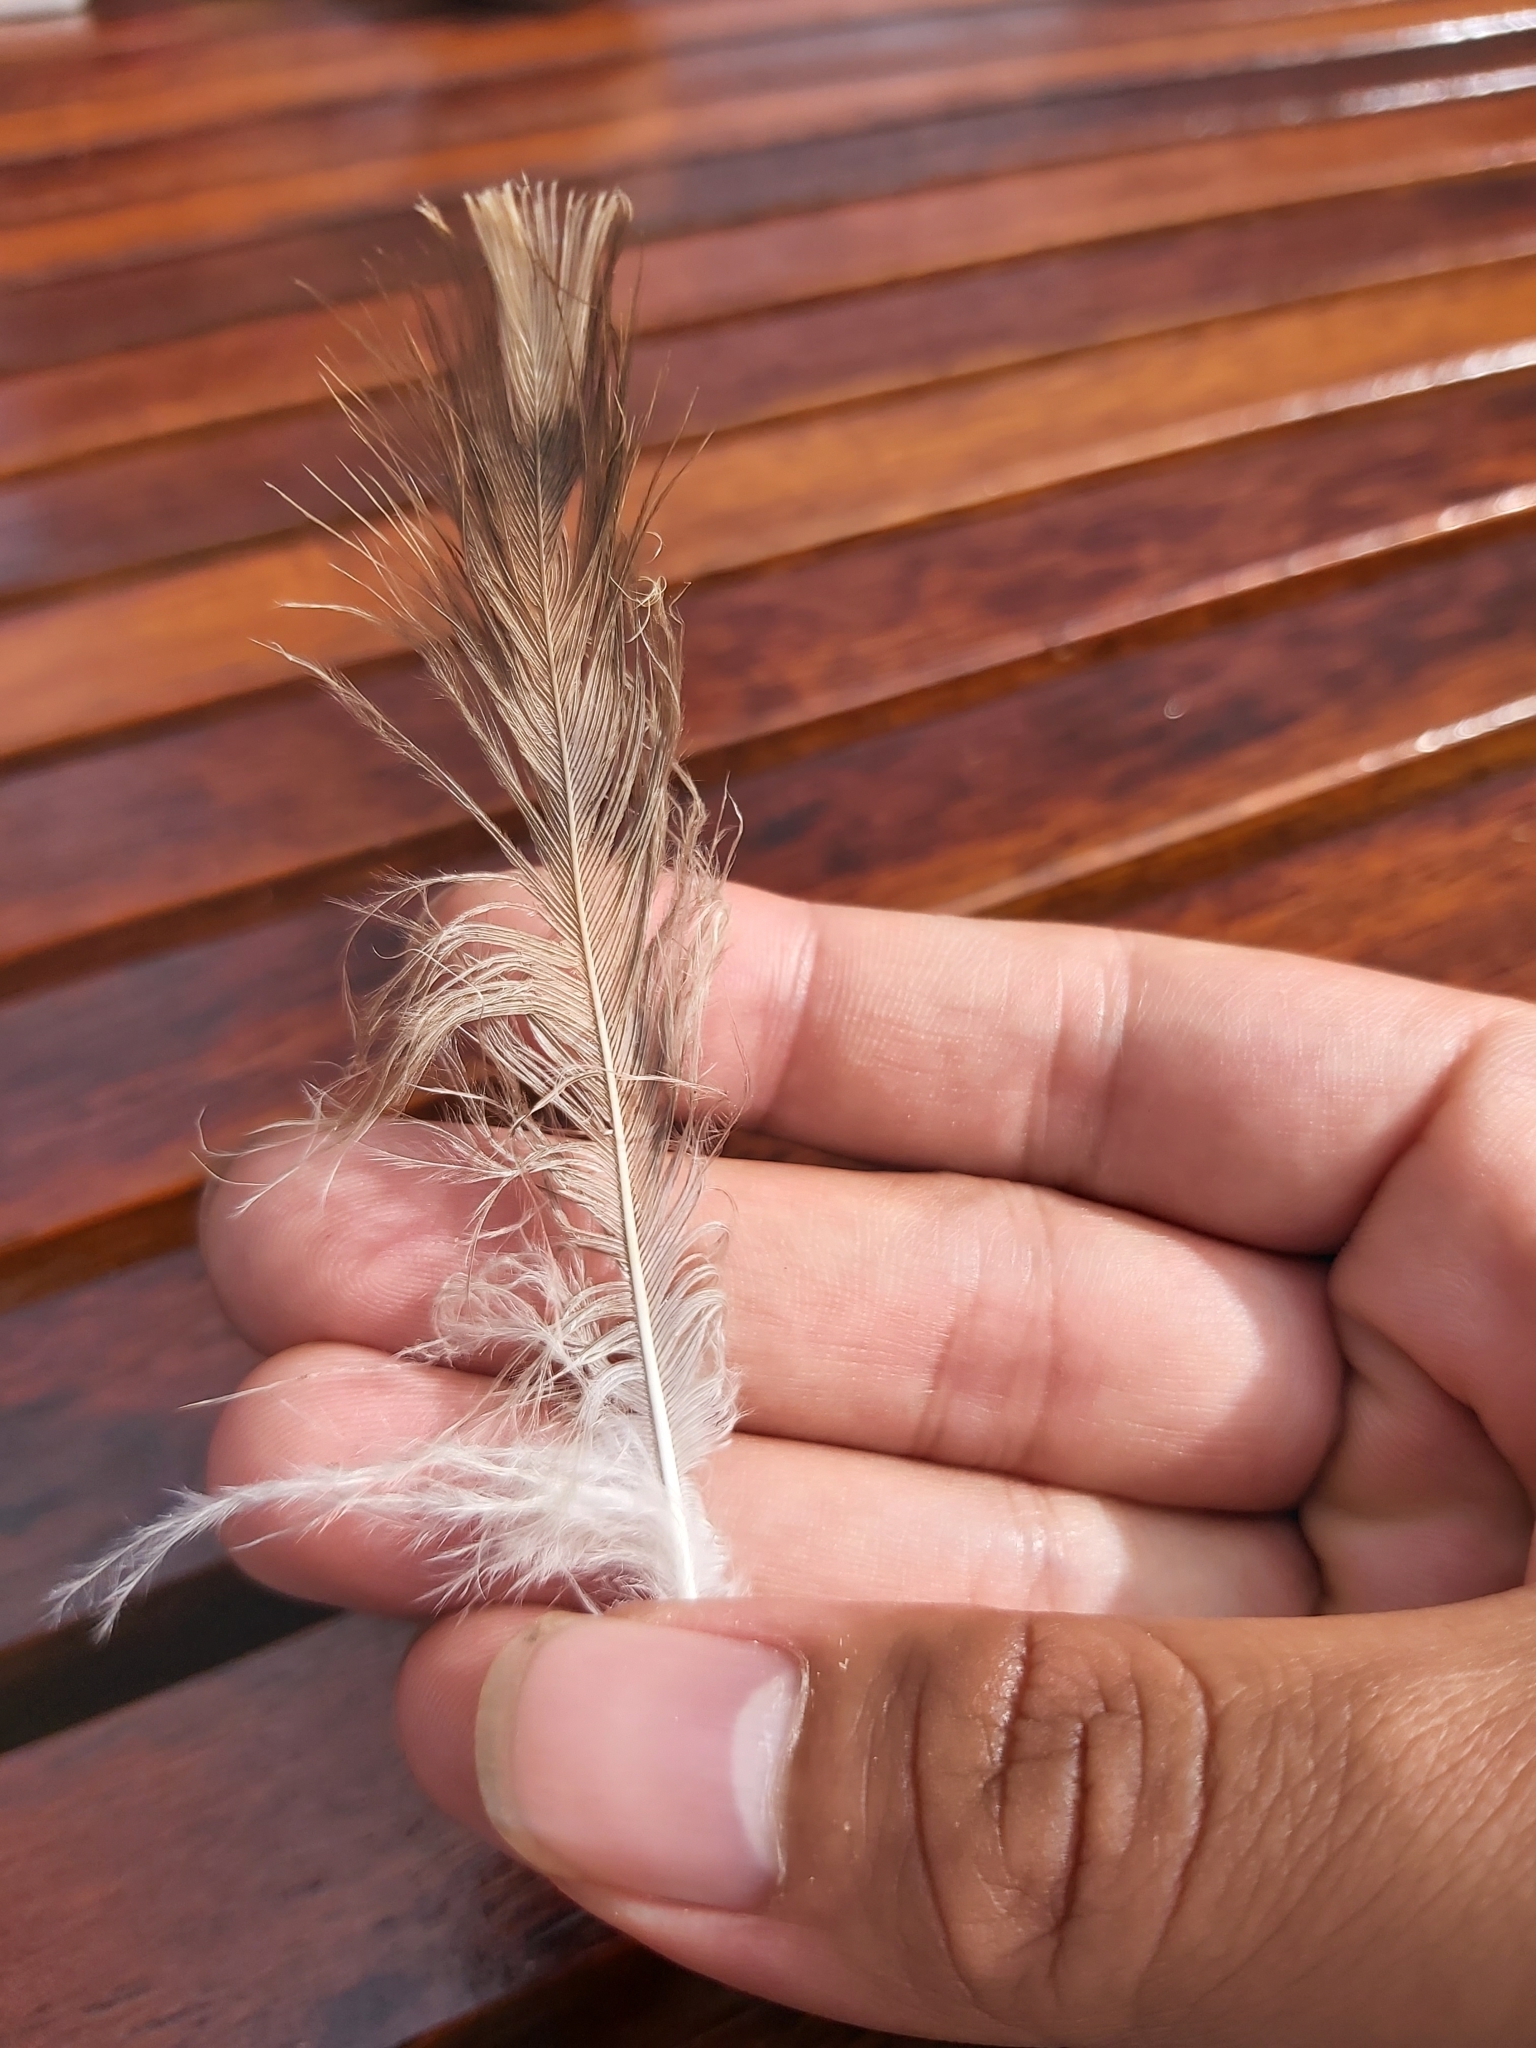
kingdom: Animalia
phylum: Chordata
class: Aves
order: Charadriiformes
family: Burhinidae
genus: Burhinus
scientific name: Burhinus grallarius
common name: Bush stone-curlew
